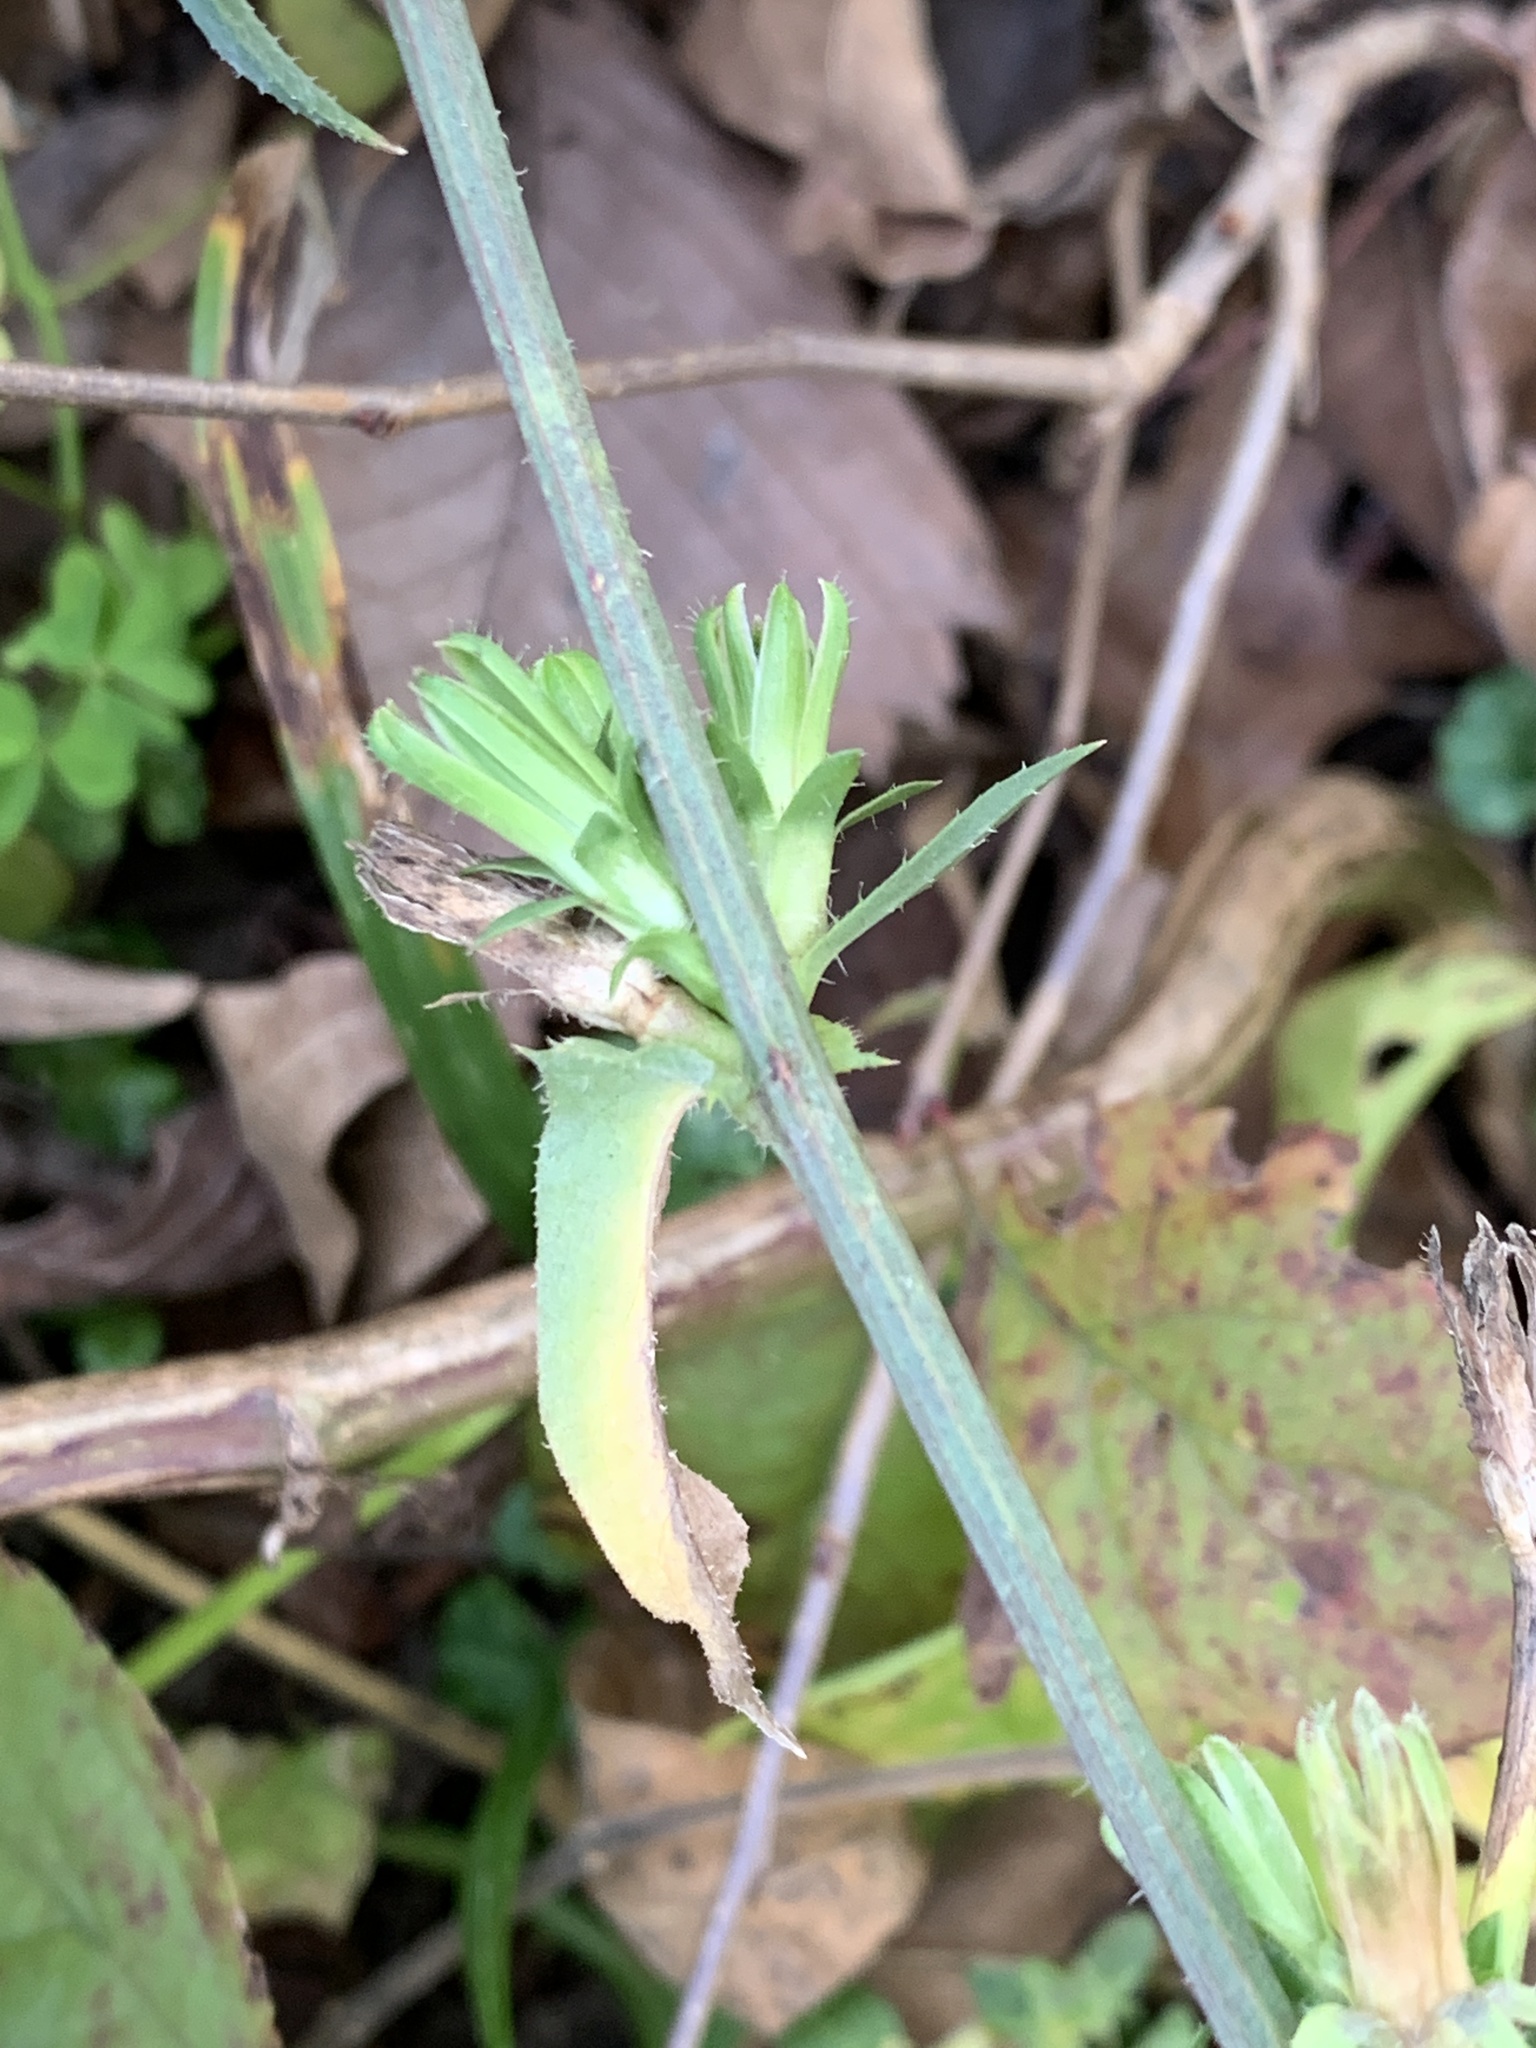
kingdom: Plantae
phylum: Tracheophyta
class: Magnoliopsida
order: Asterales
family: Asteraceae
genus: Cichorium
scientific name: Cichorium intybus
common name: Chicory
